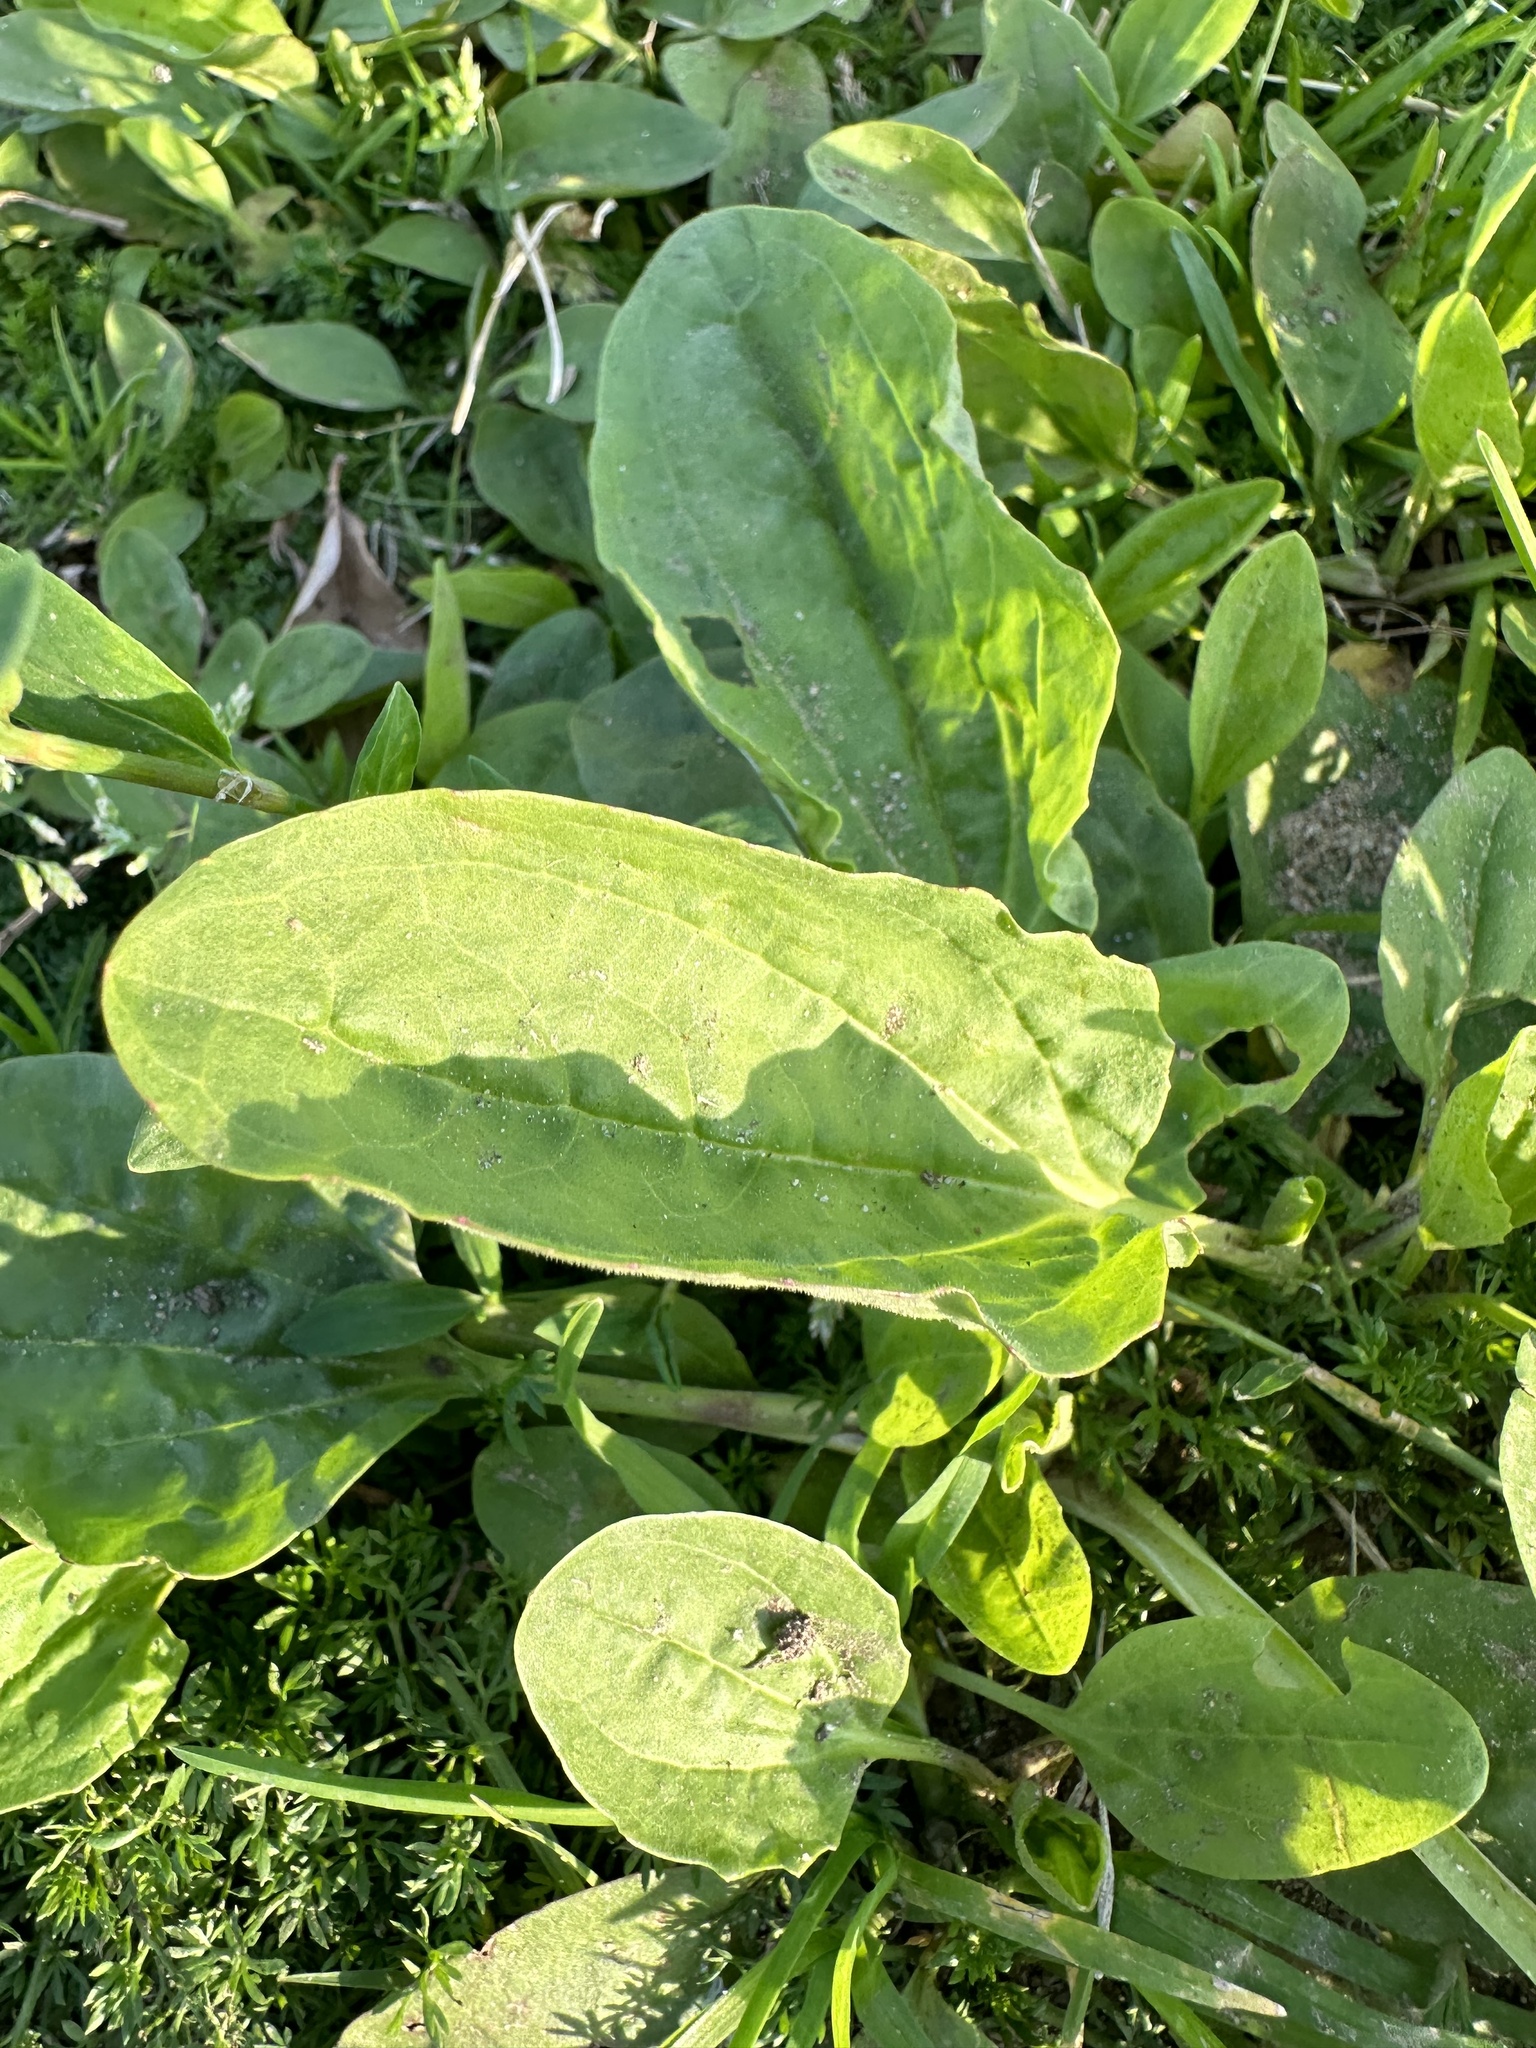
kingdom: Plantae
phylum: Tracheophyta
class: Magnoliopsida
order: Lamiales
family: Plantaginaceae
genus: Plantago
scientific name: Plantago major
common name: Common plantain
